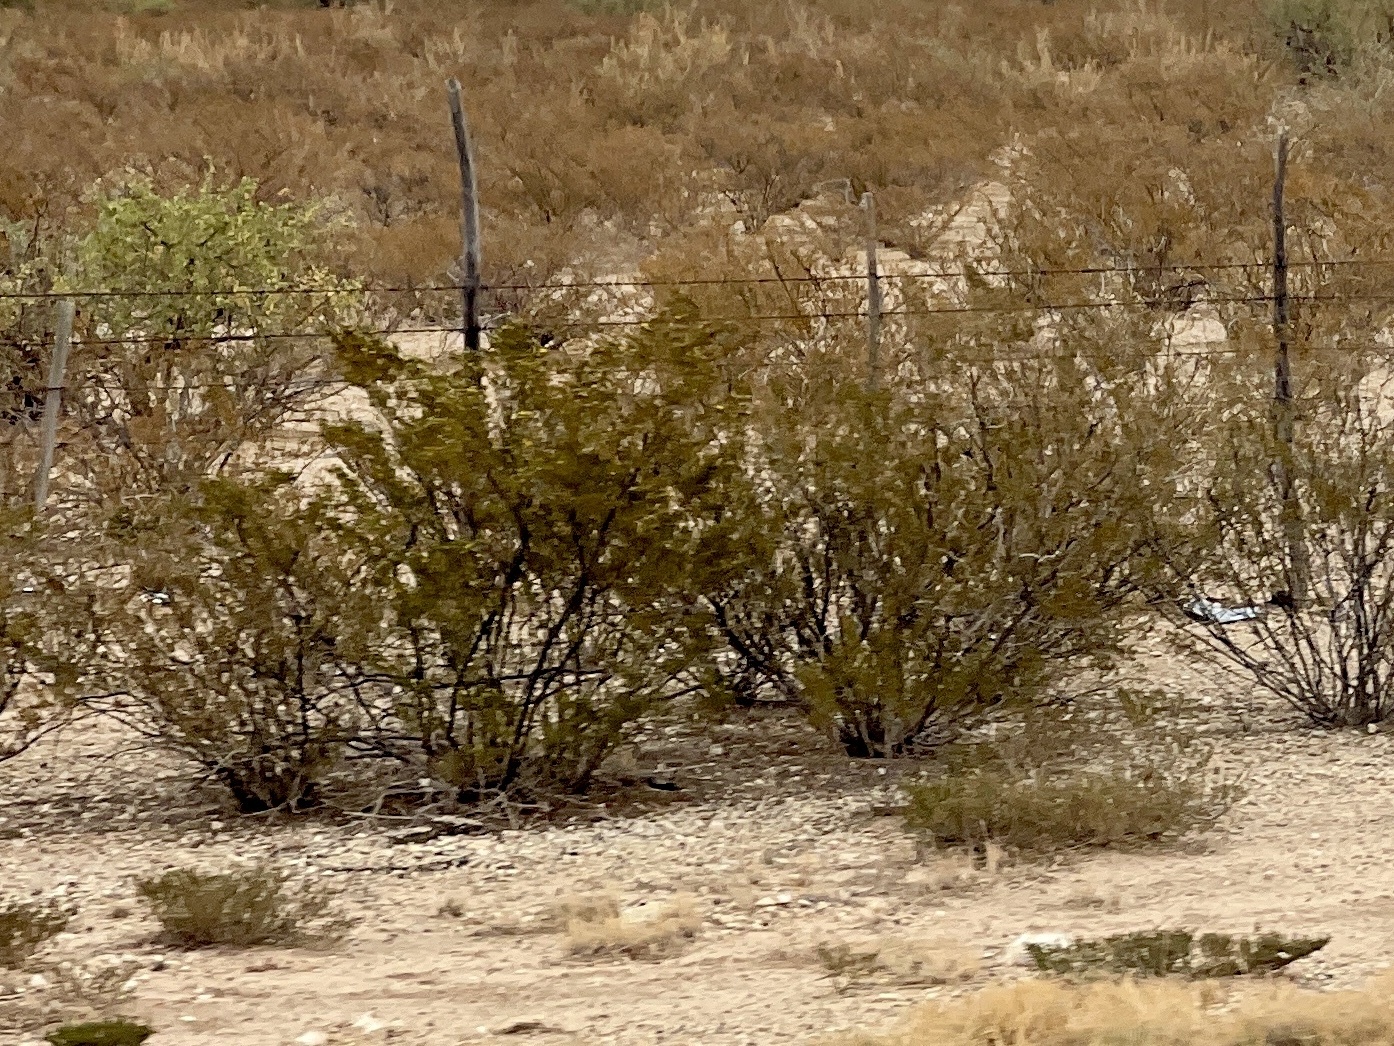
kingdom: Plantae
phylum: Tracheophyta
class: Magnoliopsida
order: Zygophyllales
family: Zygophyllaceae
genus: Larrea
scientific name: Larrea tridentata
